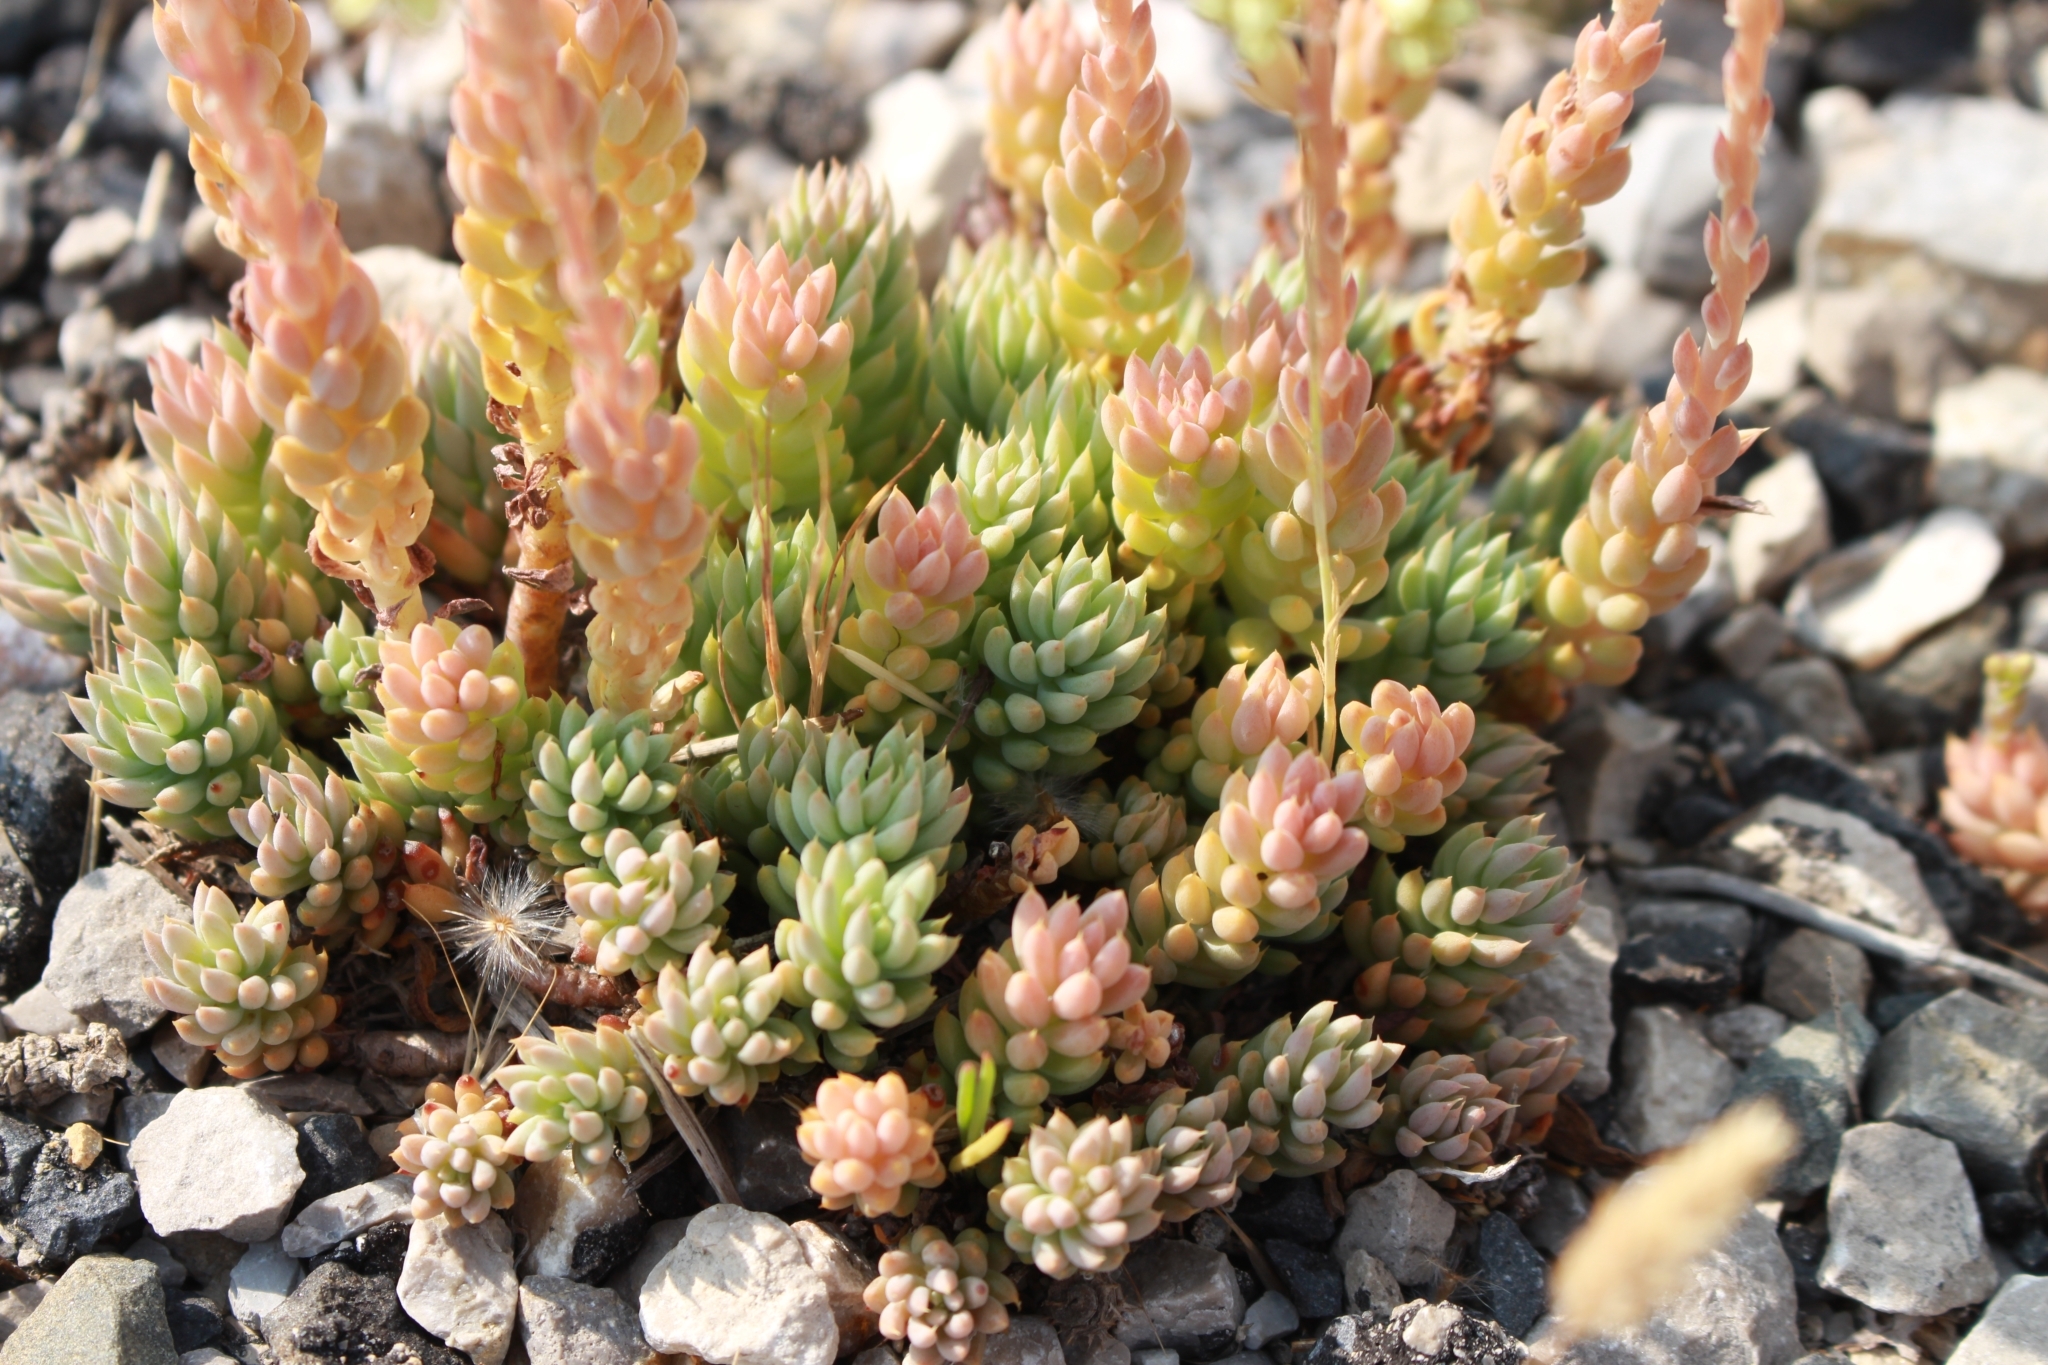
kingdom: Plantae
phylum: Tracheophyta
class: Magnoliopsida
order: Saxifragales
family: Crassulaceae
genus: Petrosedum
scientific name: Petrosedum sediforme
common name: Pale stonecrop
